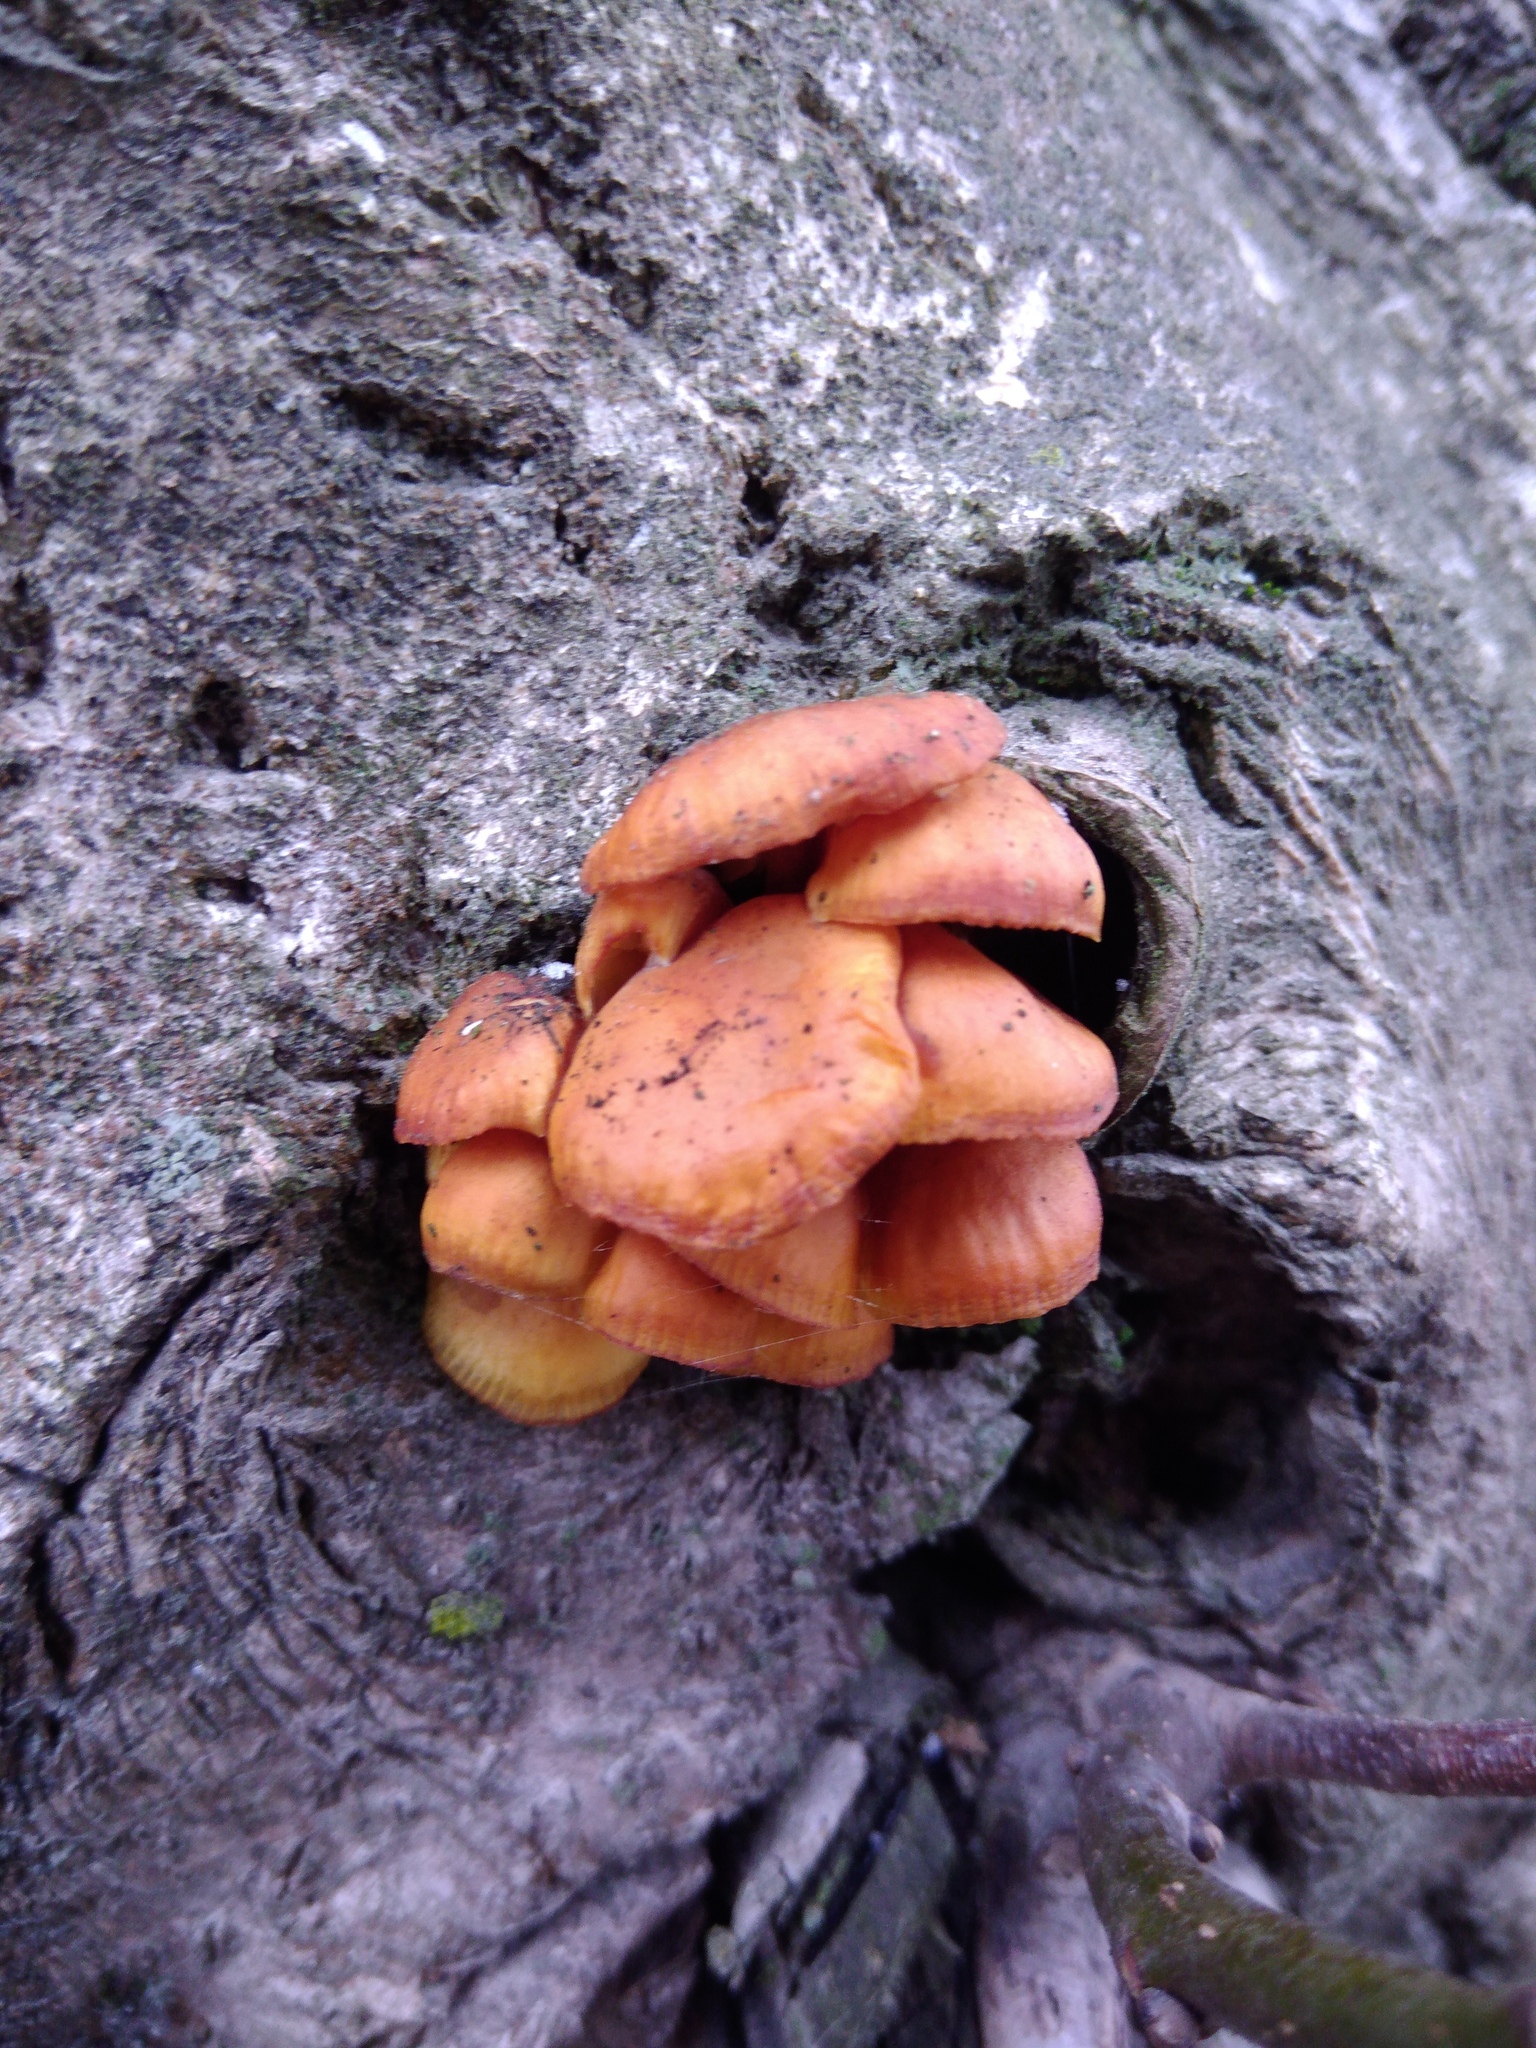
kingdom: Fungi
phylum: Basidiomycota
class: Agaricomycetes
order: Agaricales
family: Physalacriaceae
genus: Flammulina
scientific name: Flammulina
